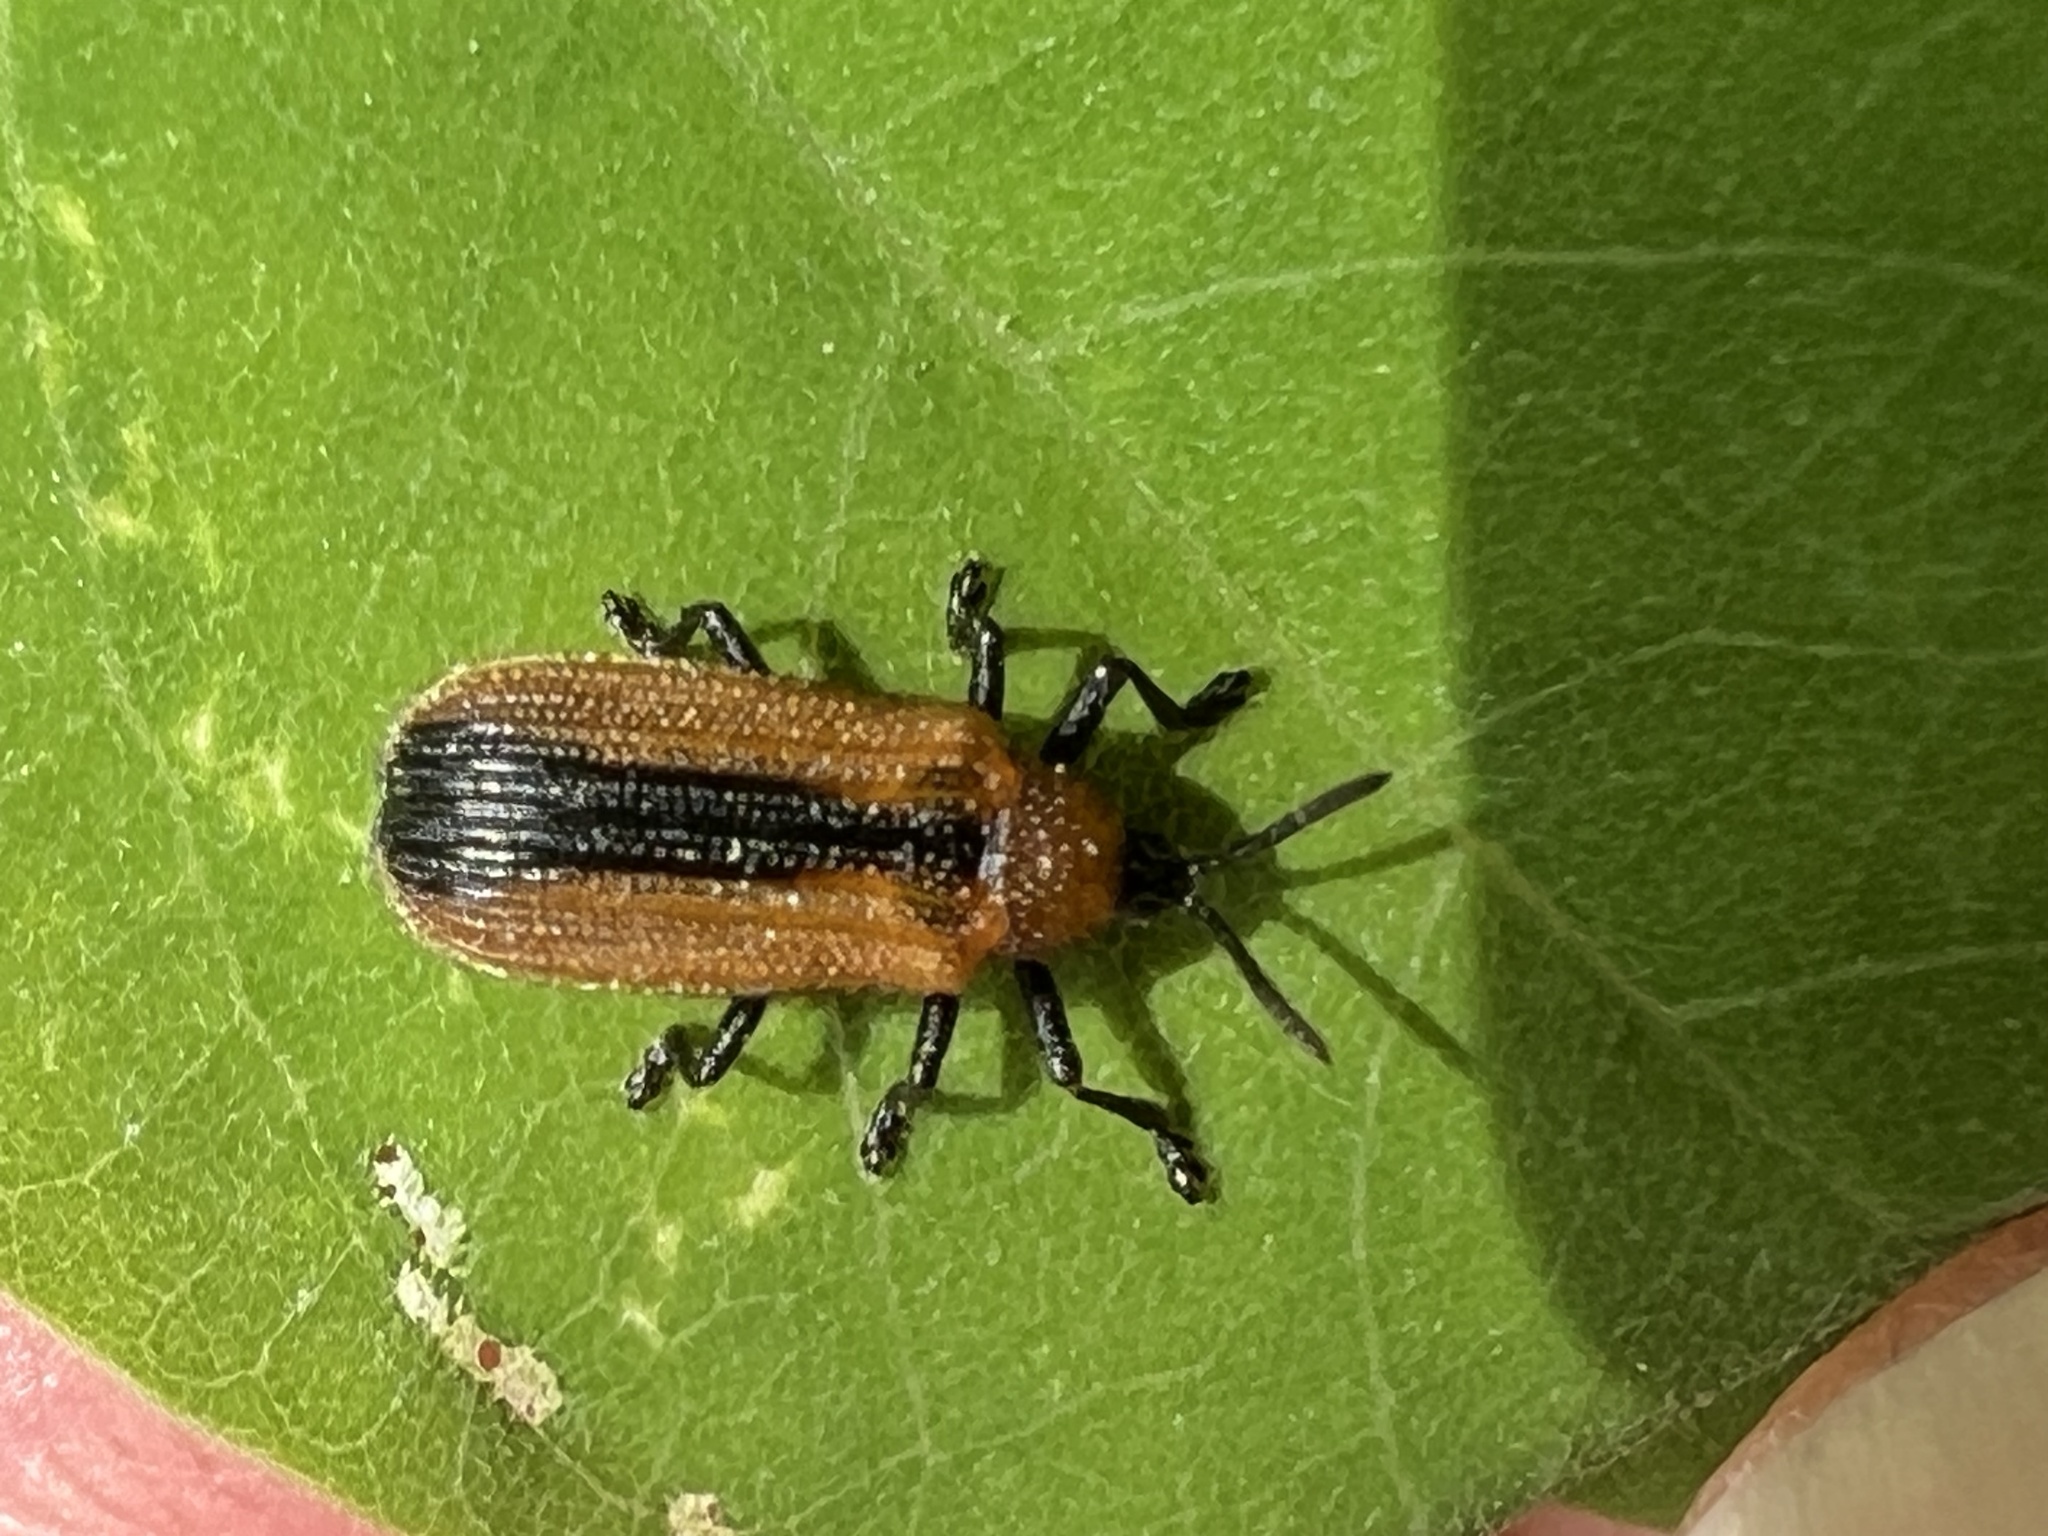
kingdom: Animalia
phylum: Arthropoda
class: Insecta
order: Coleoptera
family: Chrysomelidae
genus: Odontota
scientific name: Odontota dorsalis
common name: Locust leaf-miner beetle
